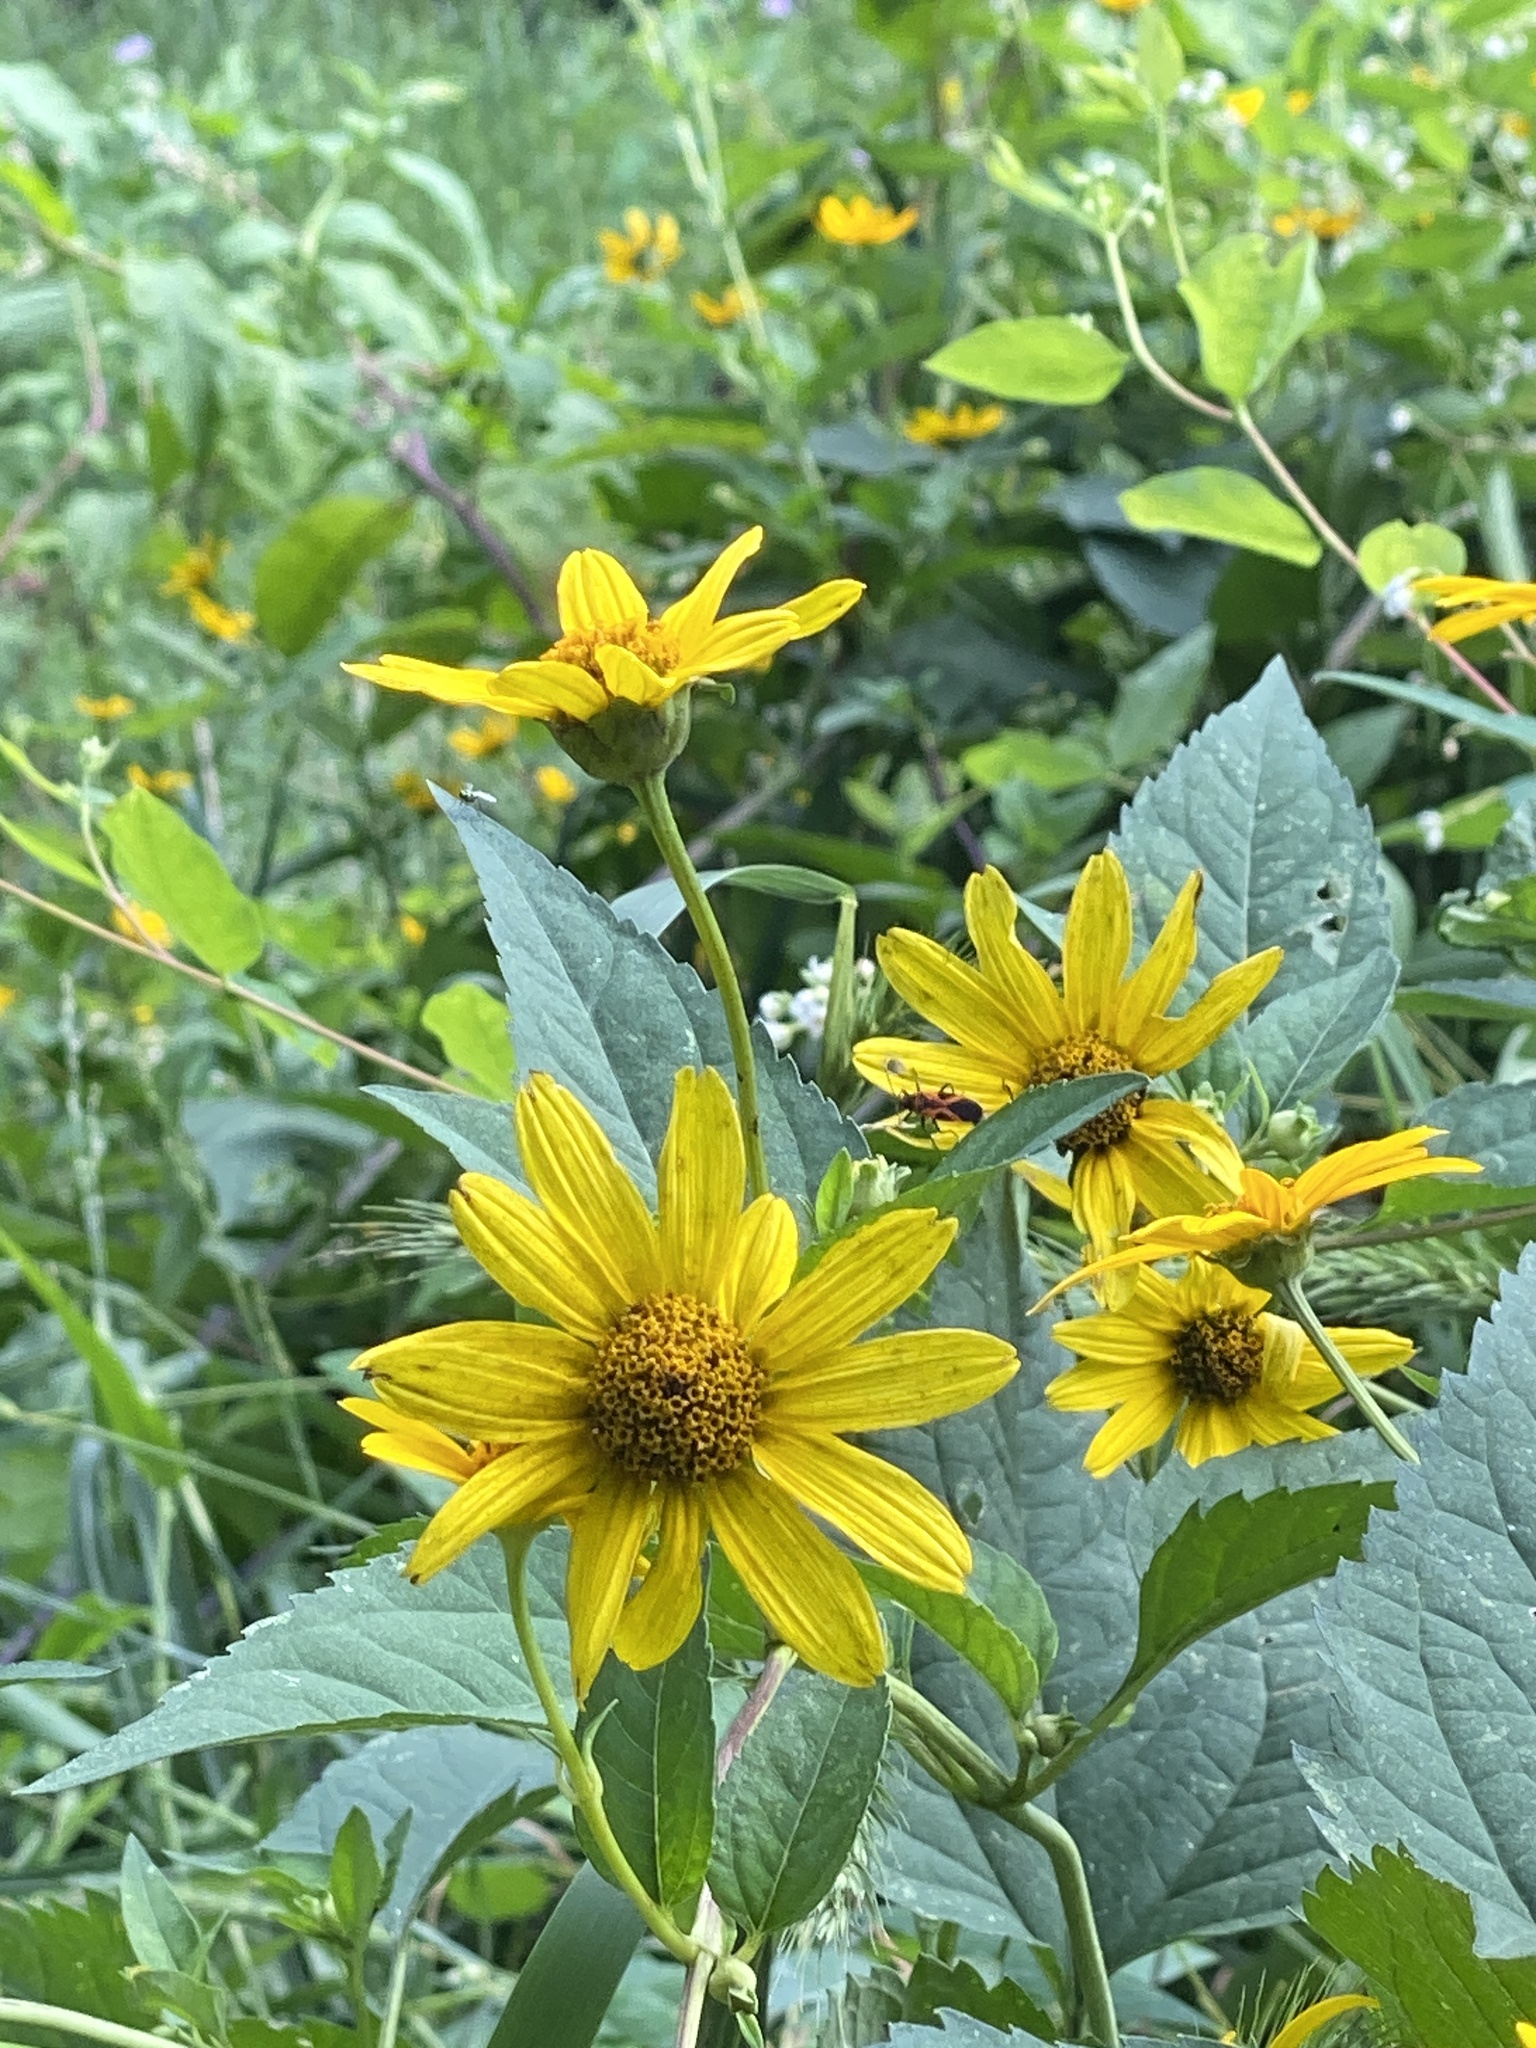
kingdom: Plantae
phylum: Tracheophyta
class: Magnoliopsida
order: Asterales
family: Asteraceae
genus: Heliopsis
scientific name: Heliopsis helianthoides
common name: False sunflower
